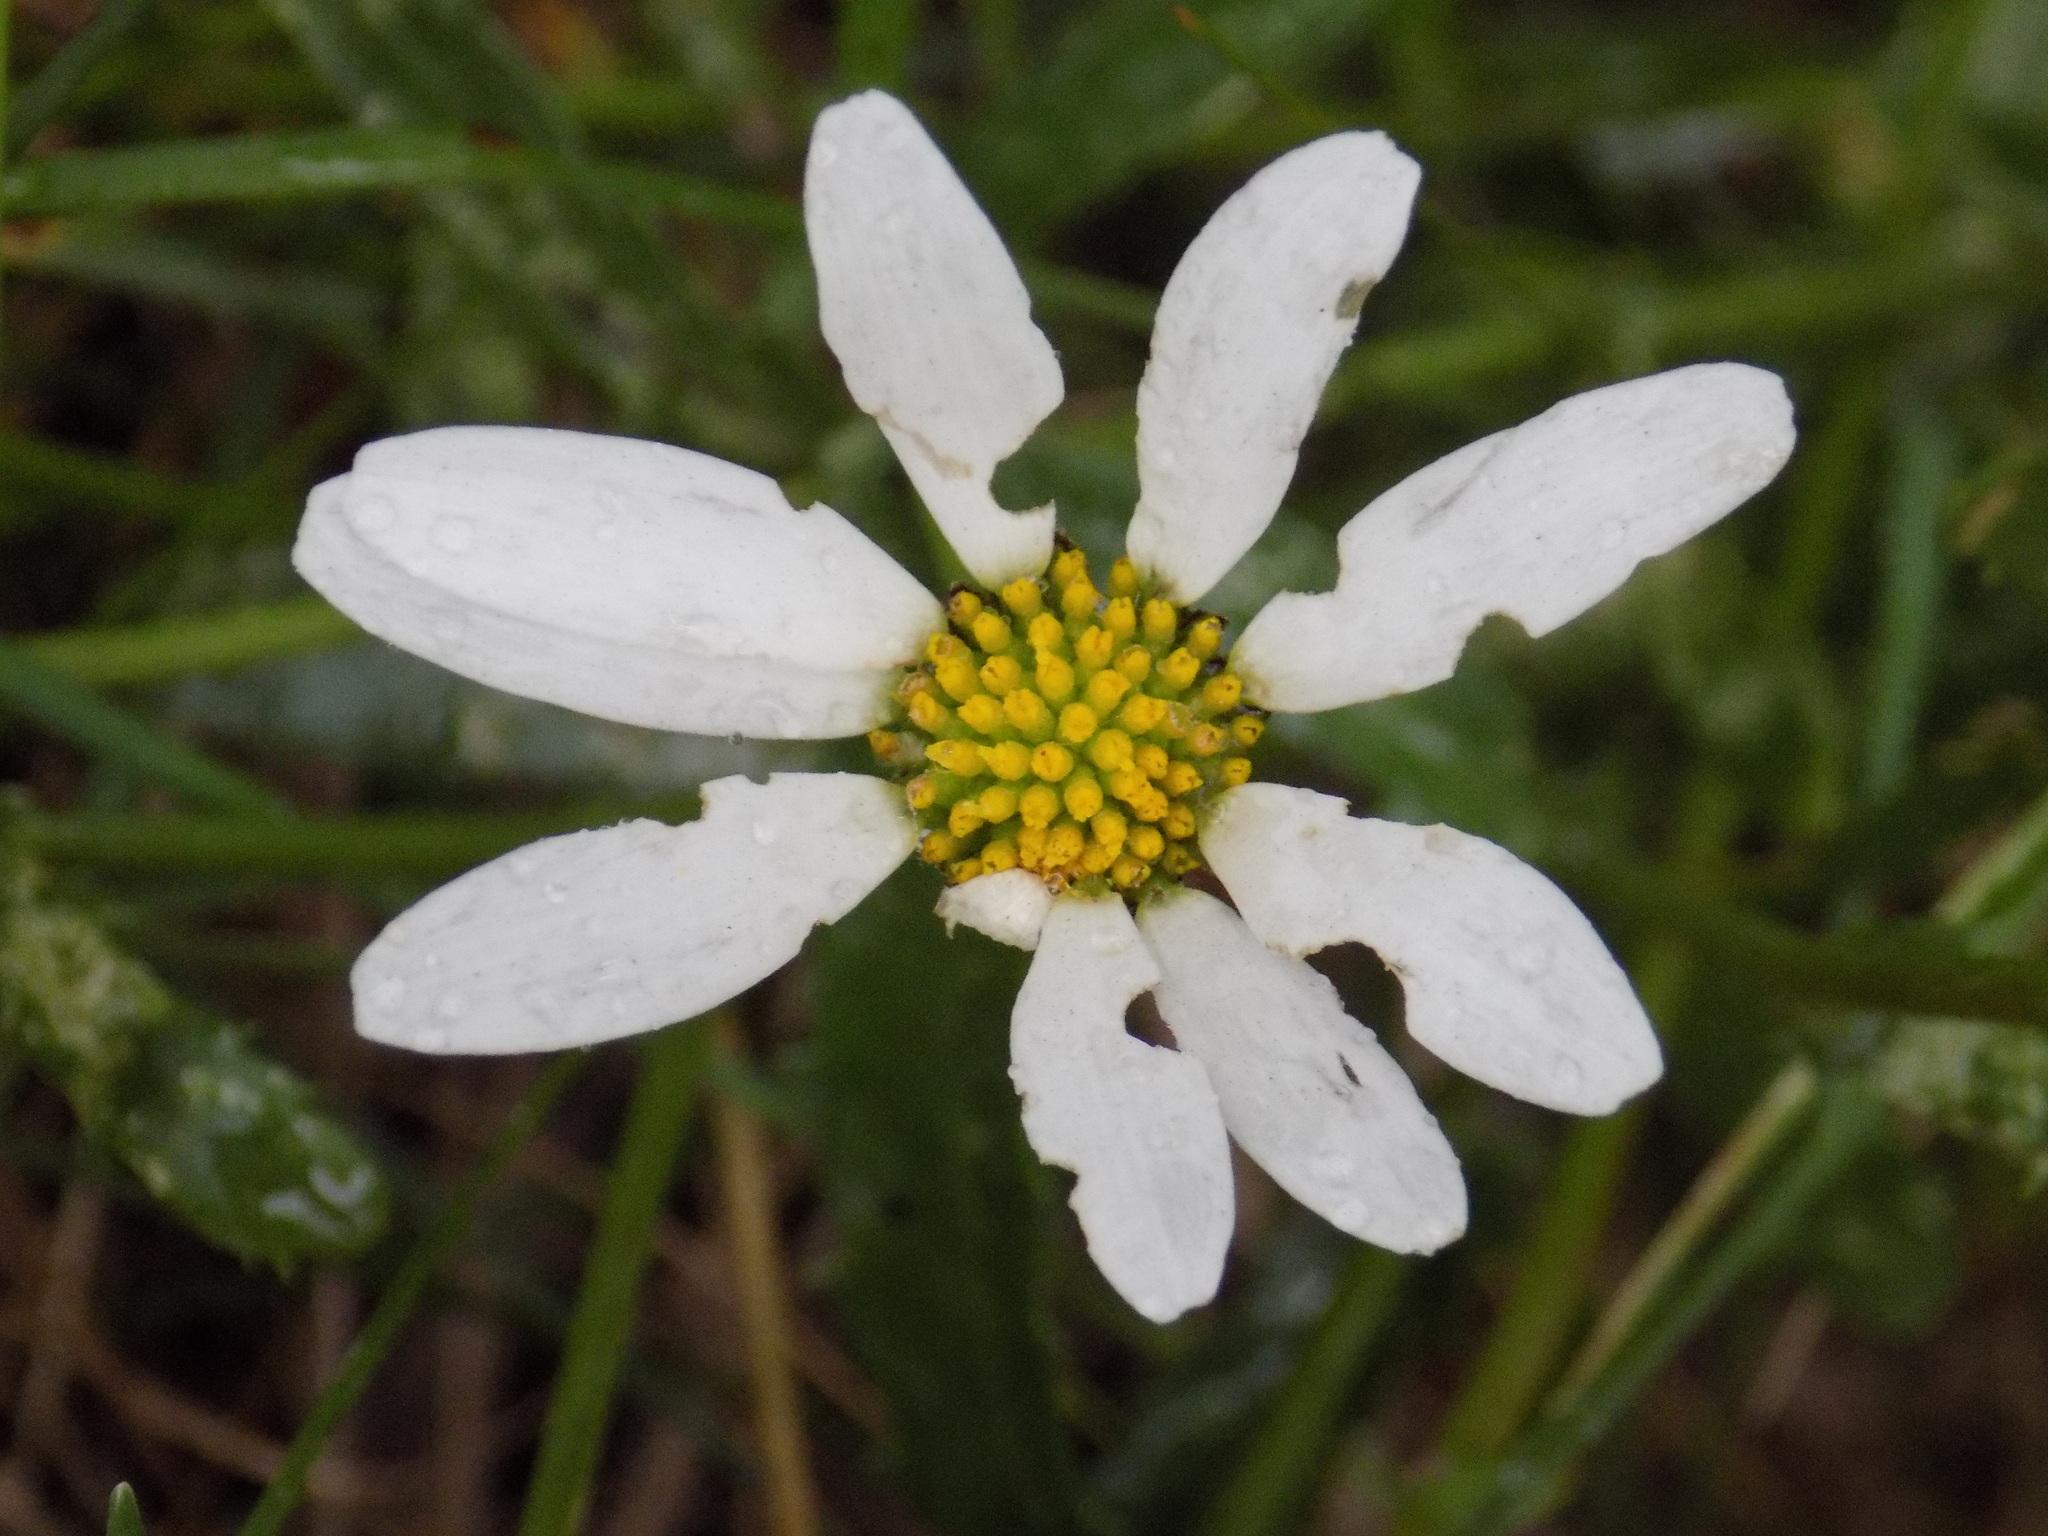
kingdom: Plantae
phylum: Tracheophyta
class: Magnoliopsida
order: Asterales
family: Asteraceae
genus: Leucanthemum
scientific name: Leucanthemum vulgare
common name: Oxeye daisy
